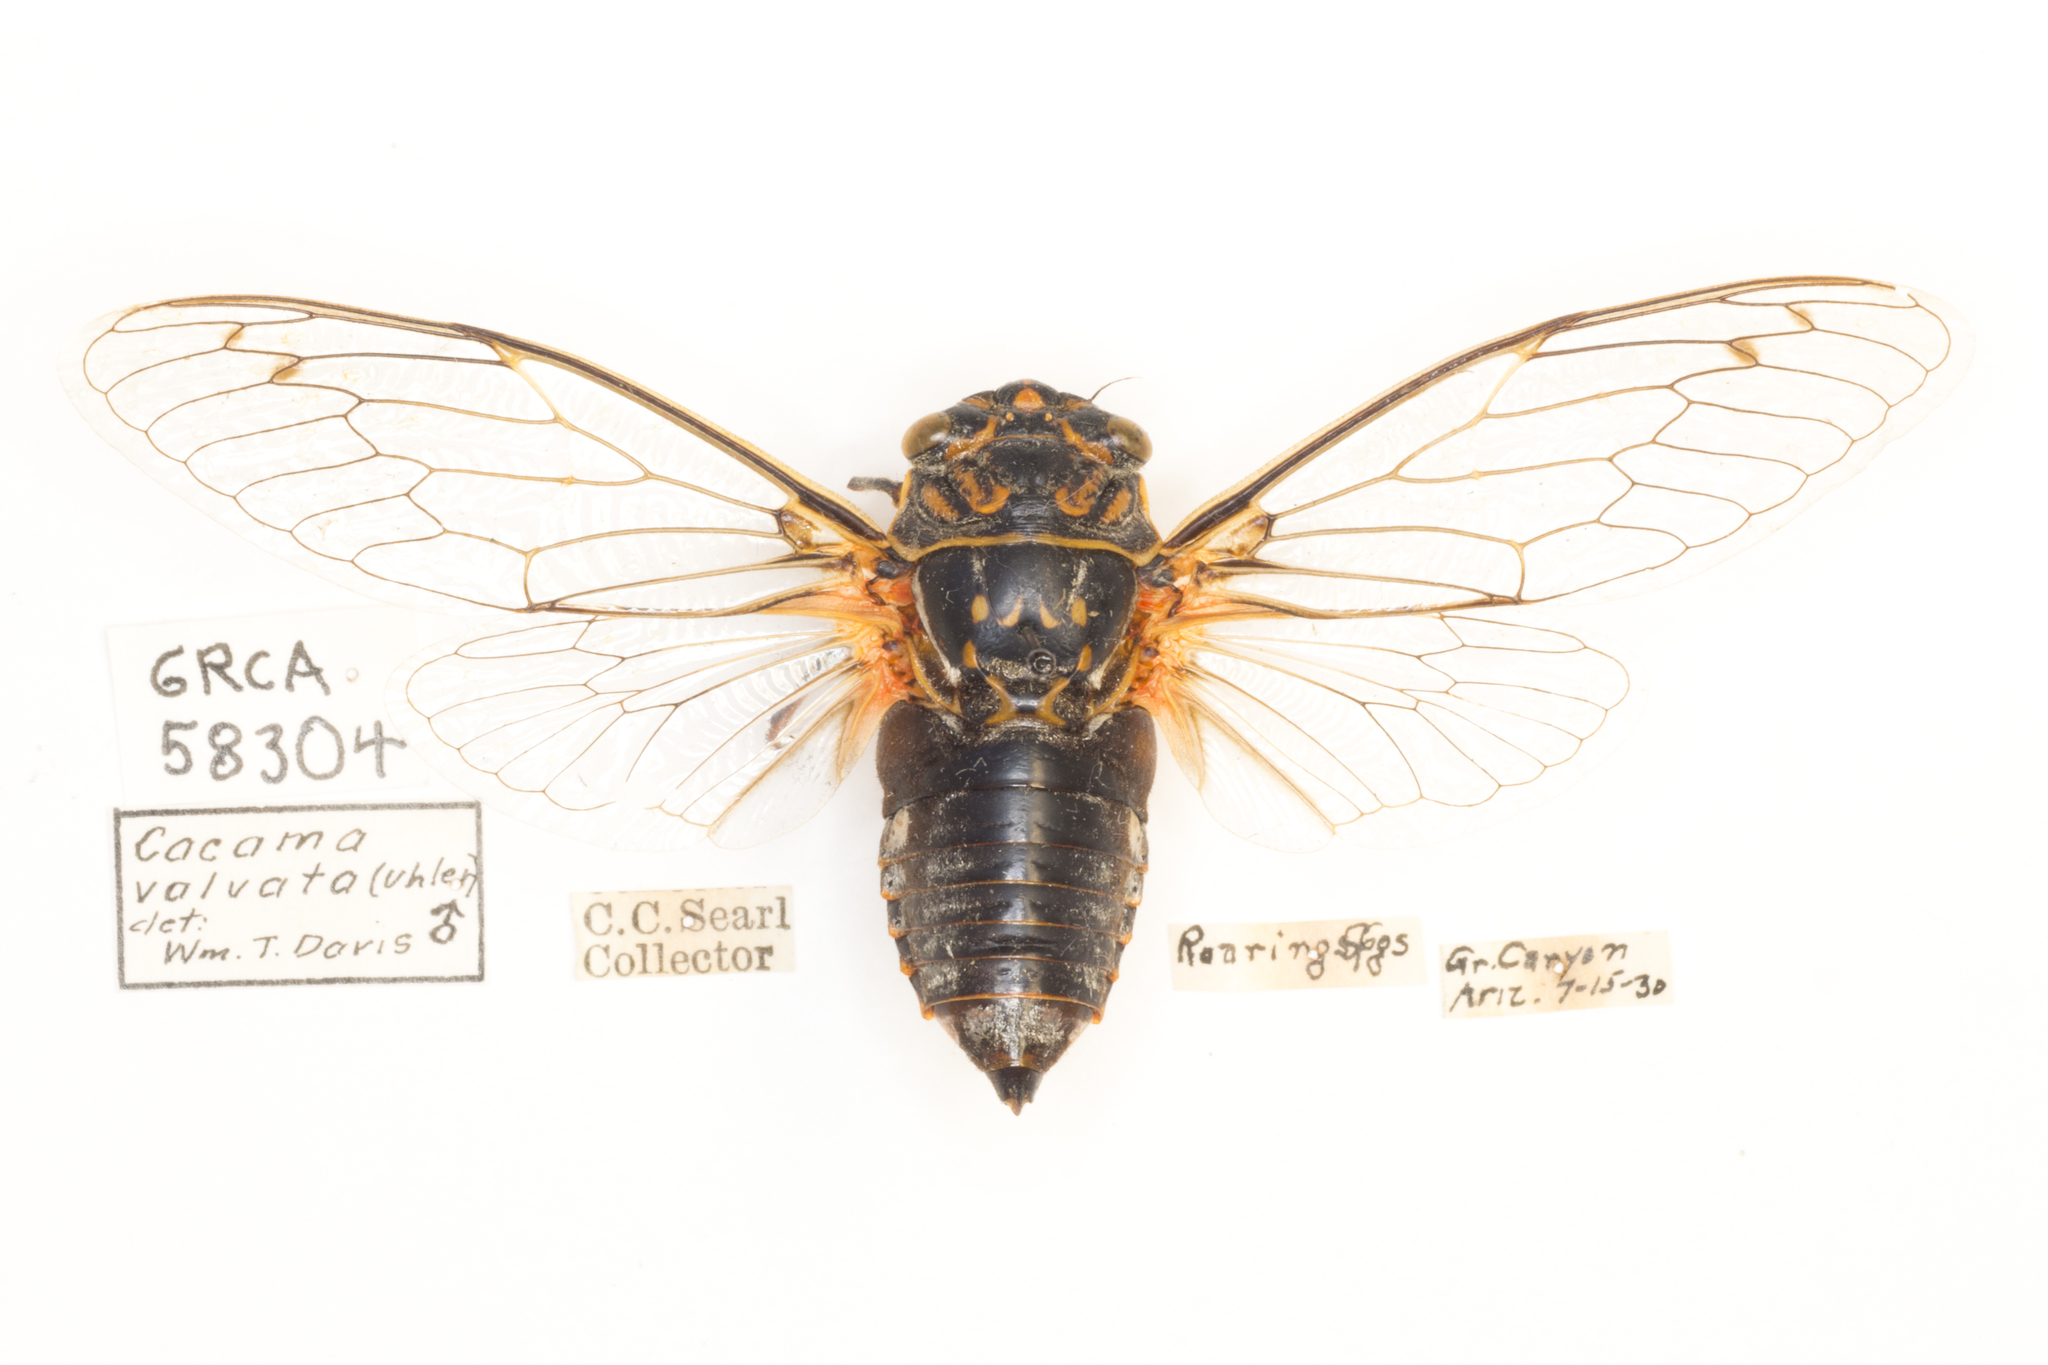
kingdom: Animalia
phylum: Arthropoda
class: Insecta
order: Hemiptera
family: Cicadidae
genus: Hadoa
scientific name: Hadoa duryi
